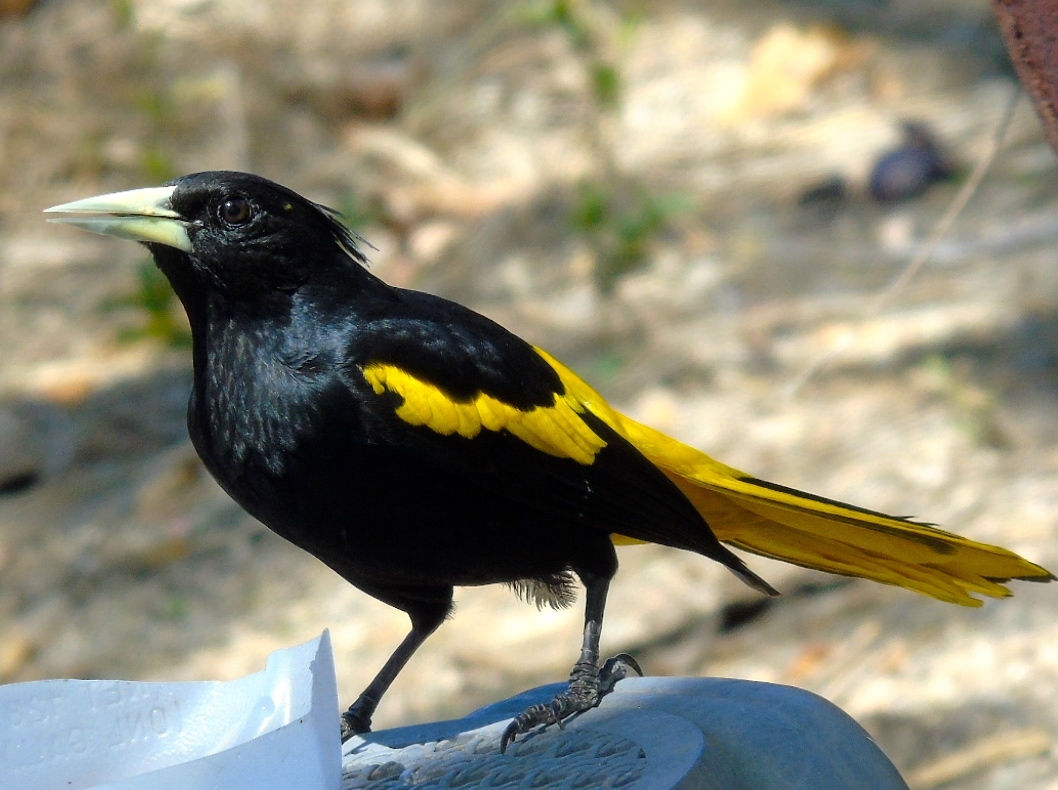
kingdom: Animalia
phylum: Chordata
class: Aves
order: Passeriformes
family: Icteridae
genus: Cacicus
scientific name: Cacicus melanicterus
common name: Yellow-winged cacique
